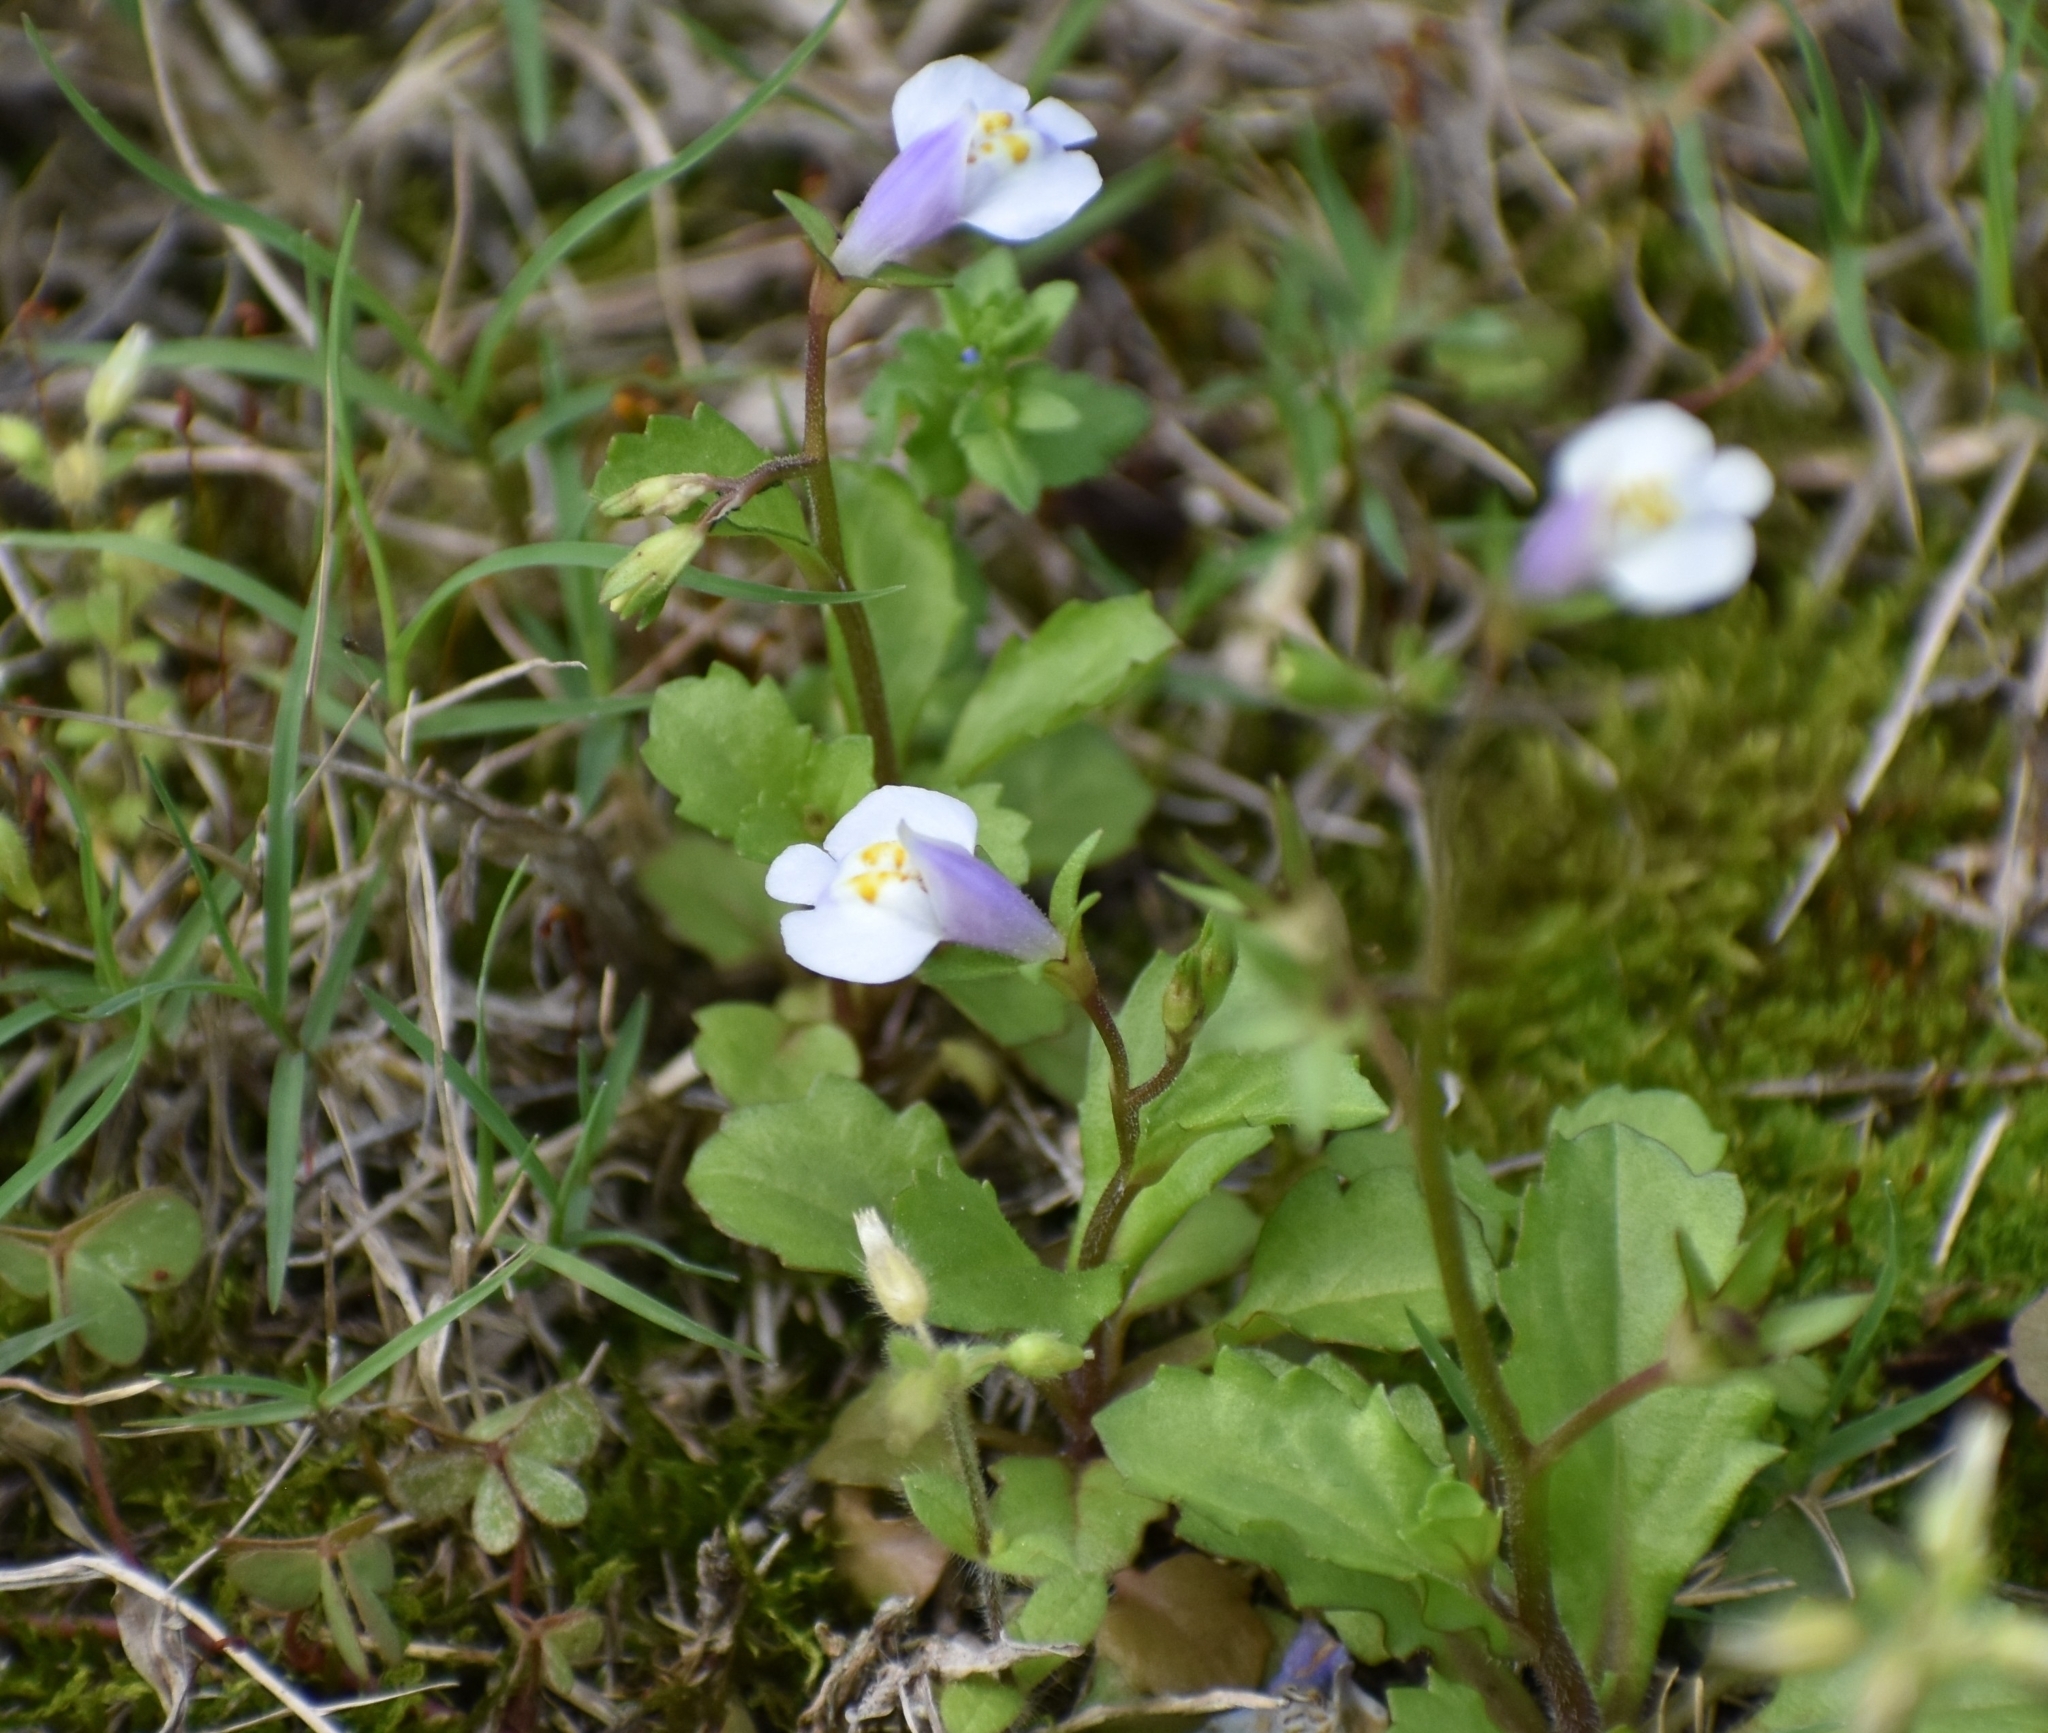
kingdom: Plantae
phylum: Tracheophyta
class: Magnoliopsida
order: Lamiales
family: Mazaceae
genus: Mazus
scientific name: Mazus pumilus
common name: Japanese mazus
